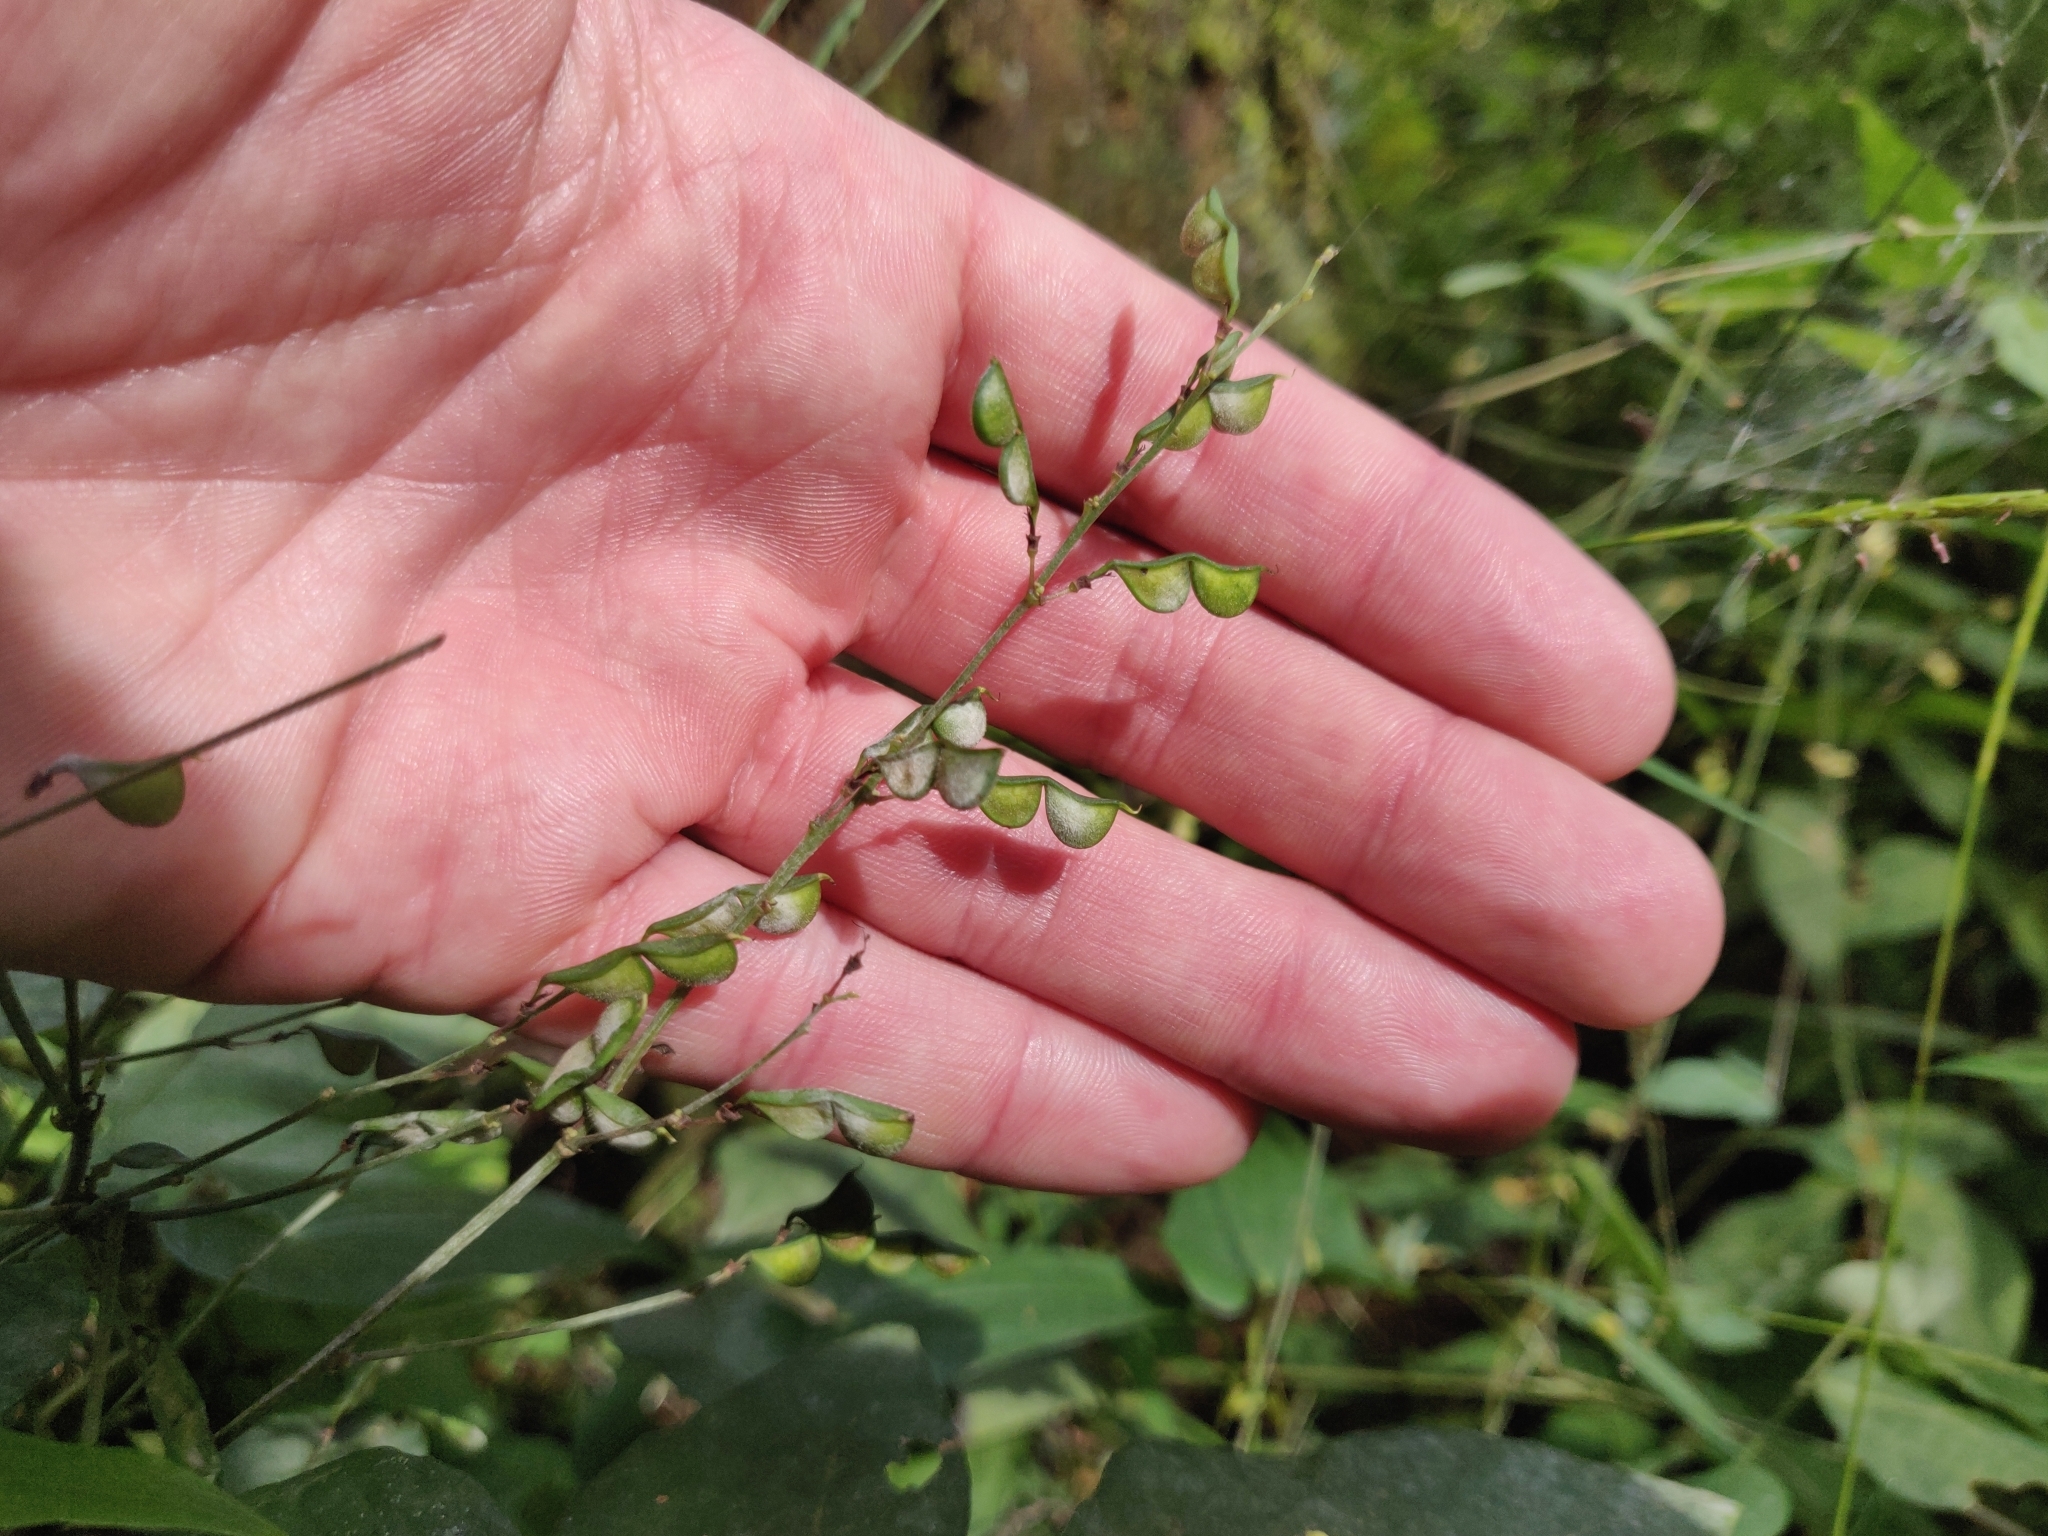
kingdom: Plantae
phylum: Tracheophyta
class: Magnoliopsida
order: Fabales
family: Fabaceae
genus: Hylodesmum
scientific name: Hylodesmum podocarpum
